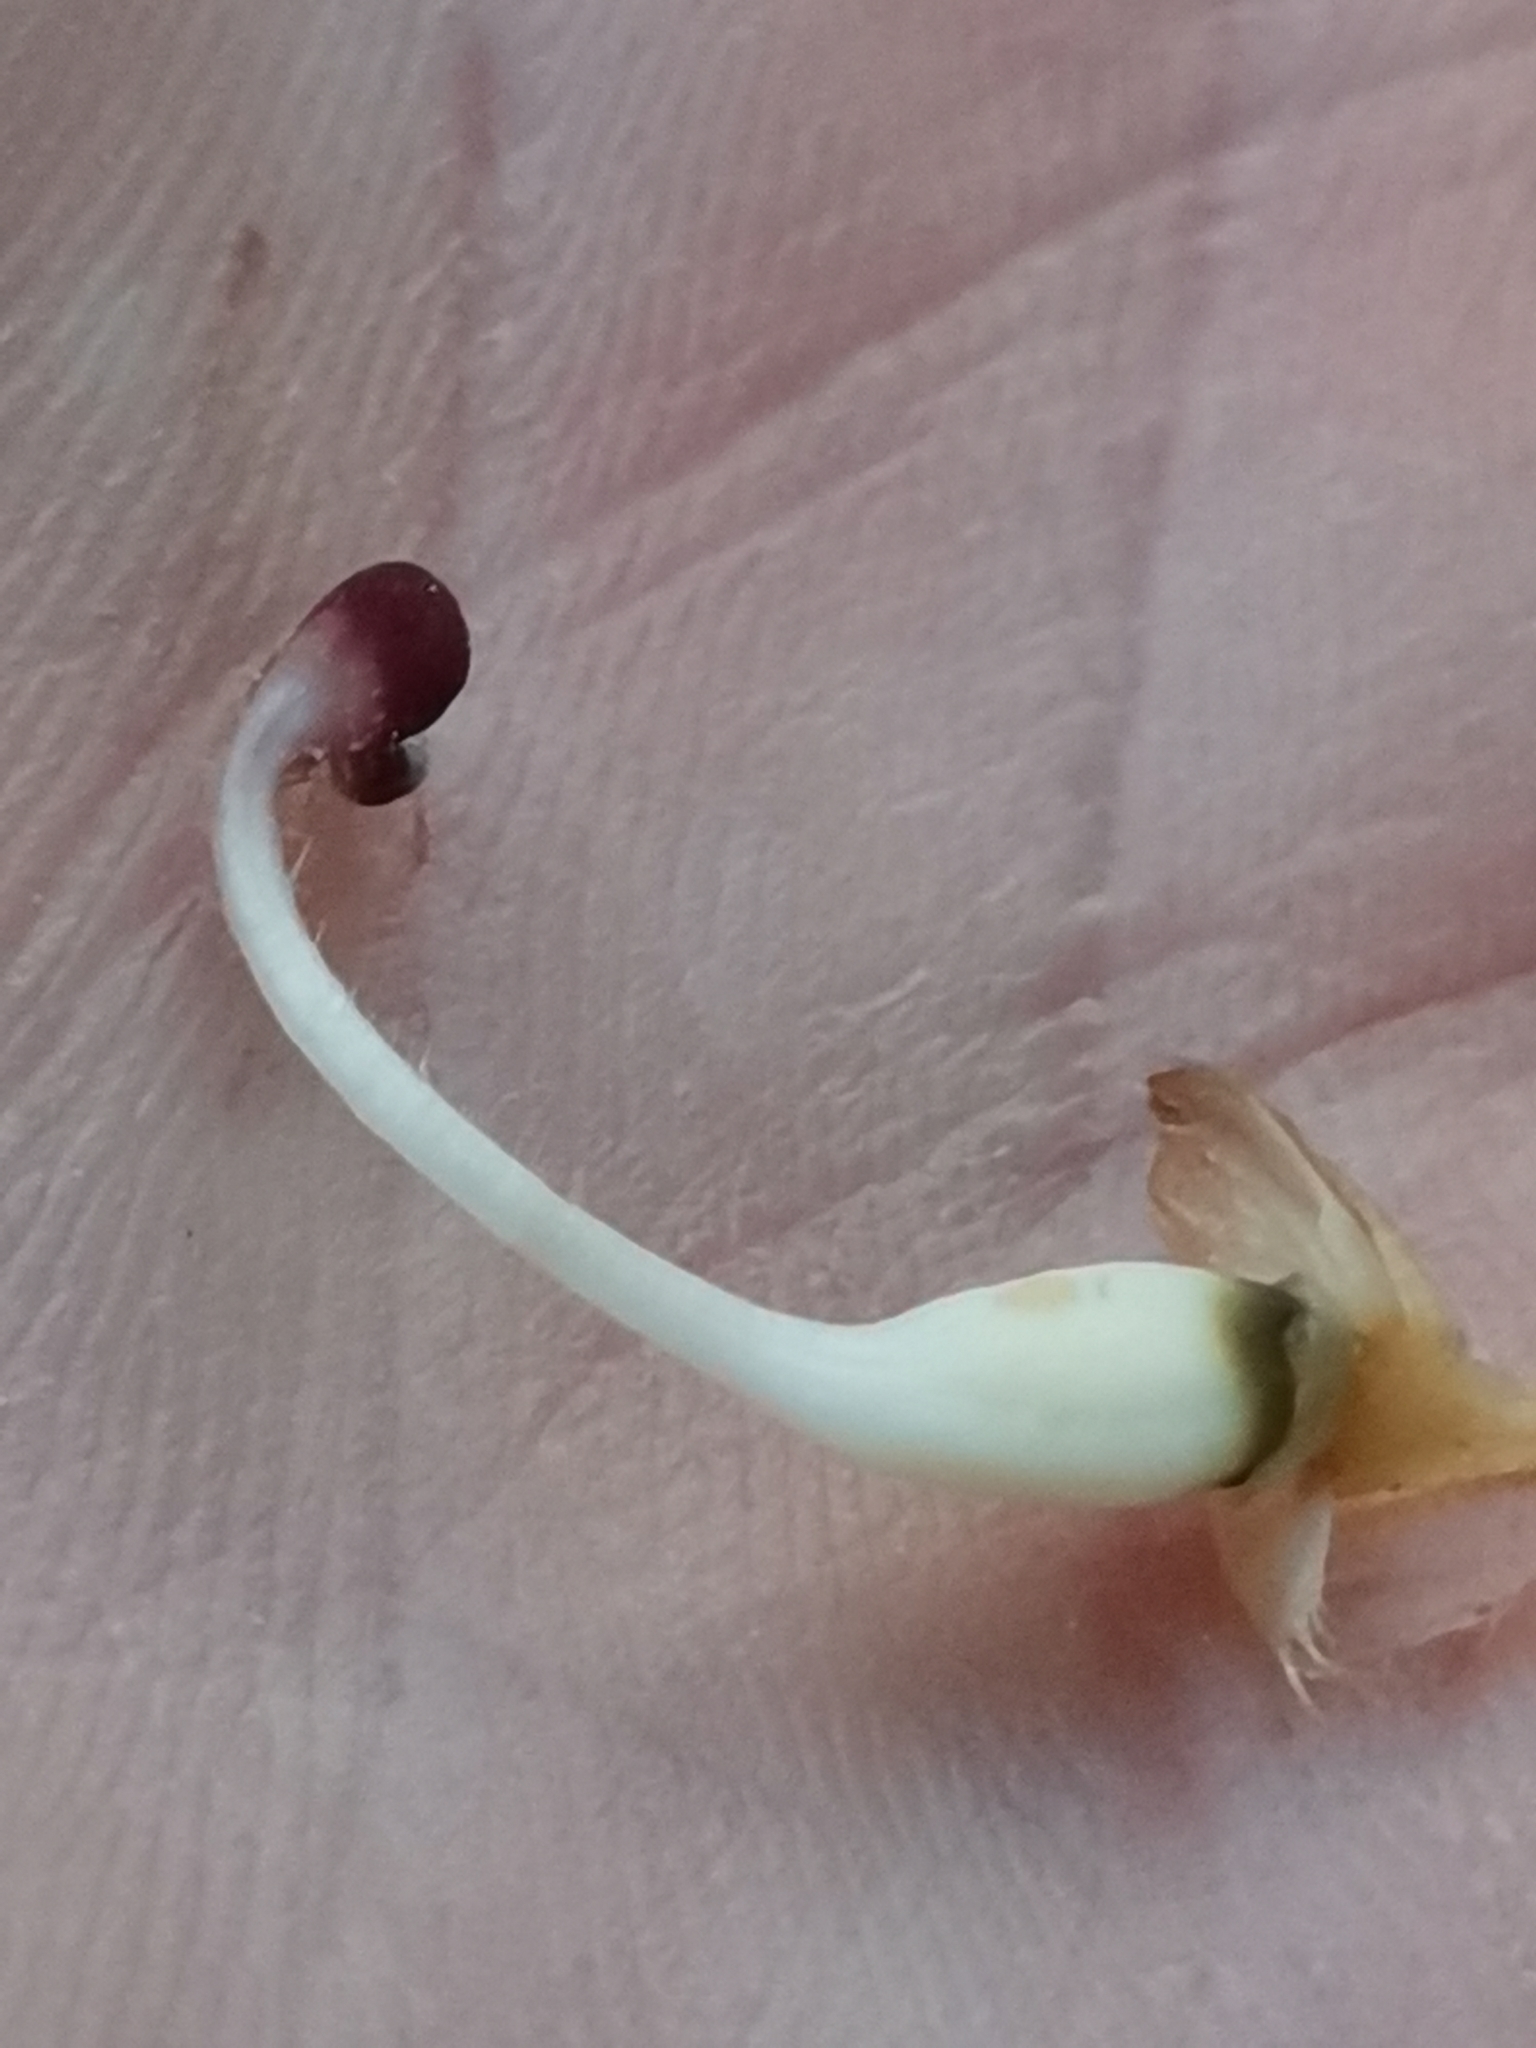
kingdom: Plantae
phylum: Tracheophyta
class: Magnoliopsida
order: Lamiales
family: Orobanchaceae
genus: Orobanche
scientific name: Orobanche caryophyllacea
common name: Bedstraw broomrape
